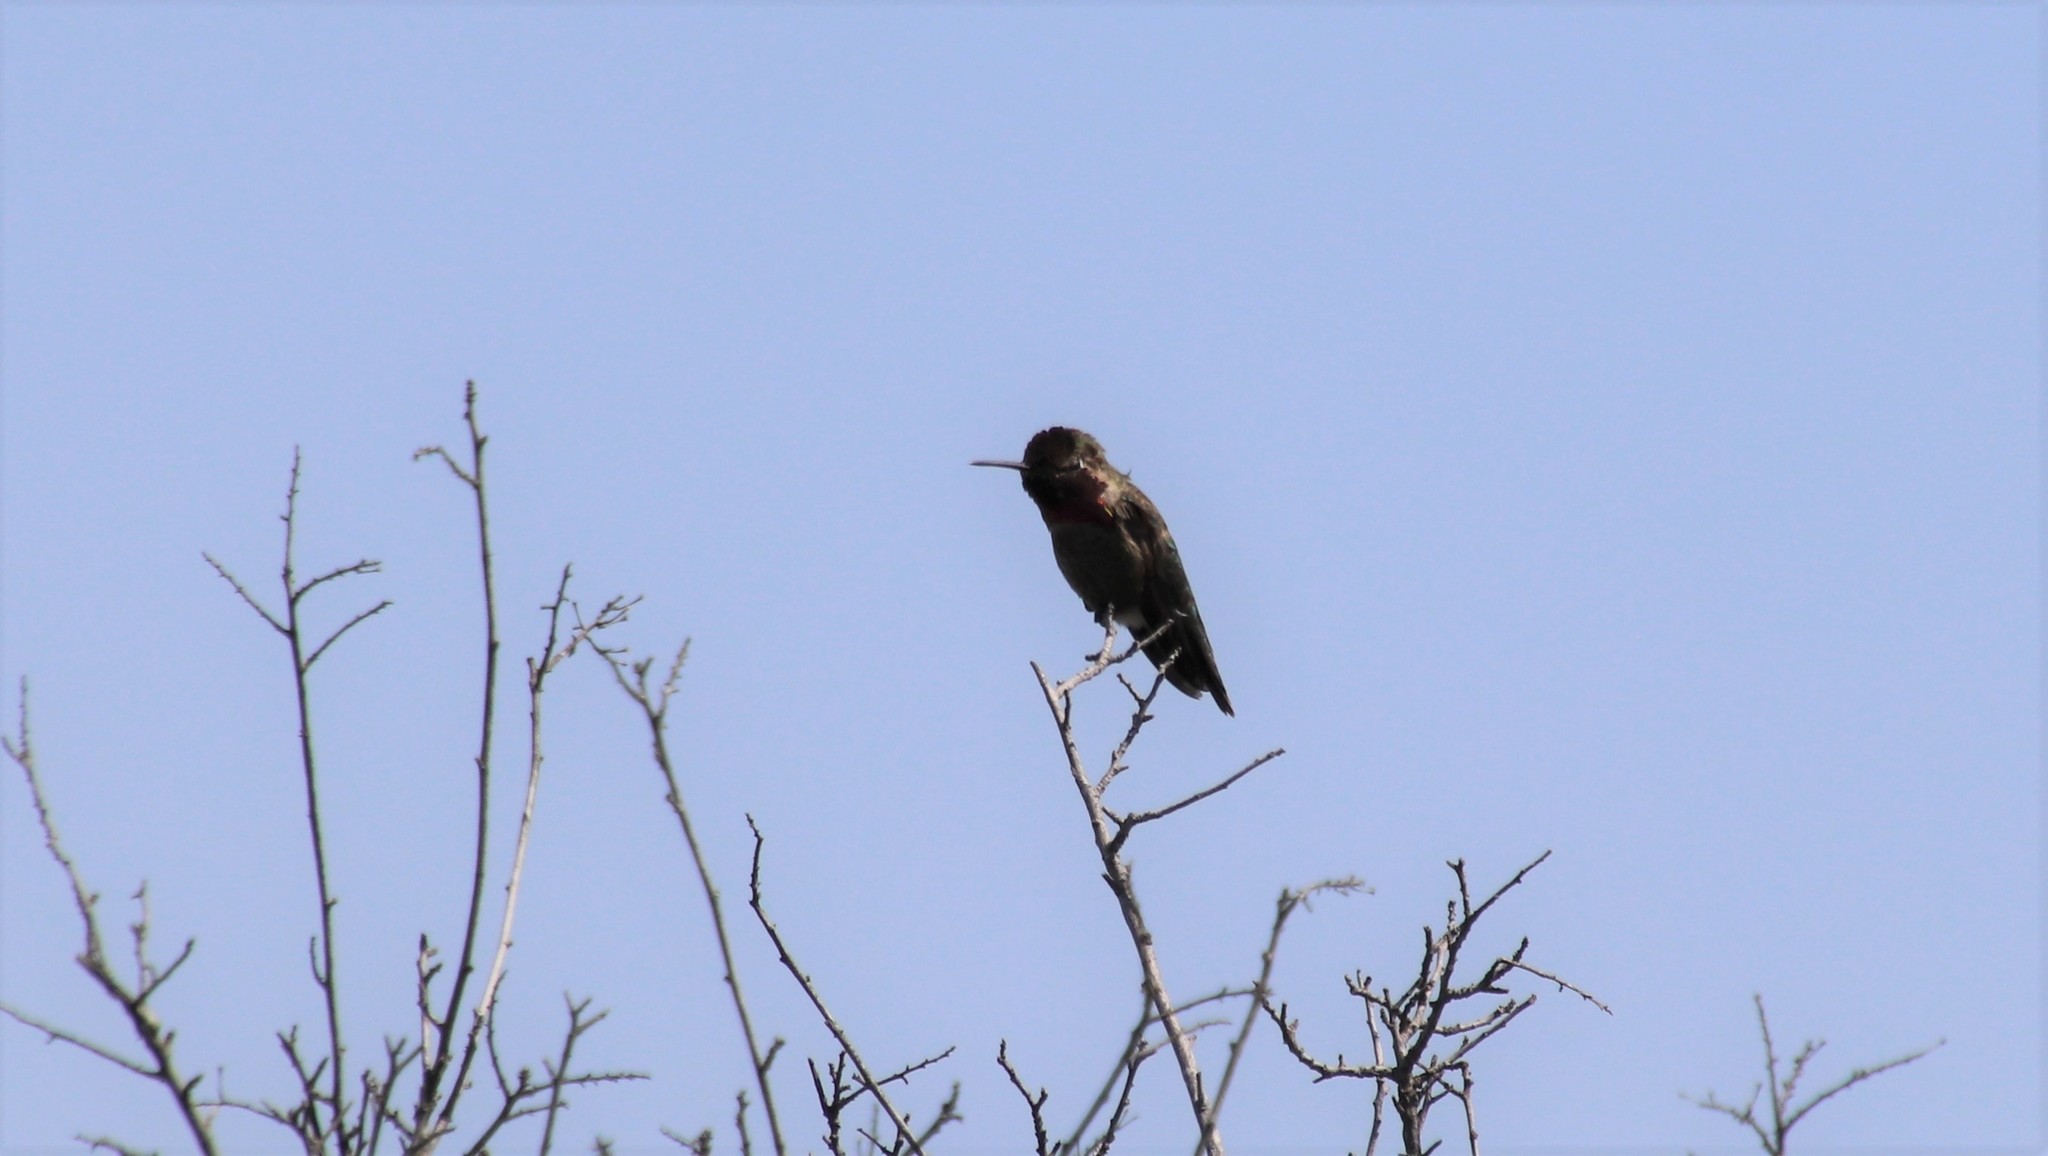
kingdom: Animalia
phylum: Chordata
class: Aves
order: Apodiformes
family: Trochilidae
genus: Calypte
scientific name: Calypte anna
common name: Anna's hummingbird
